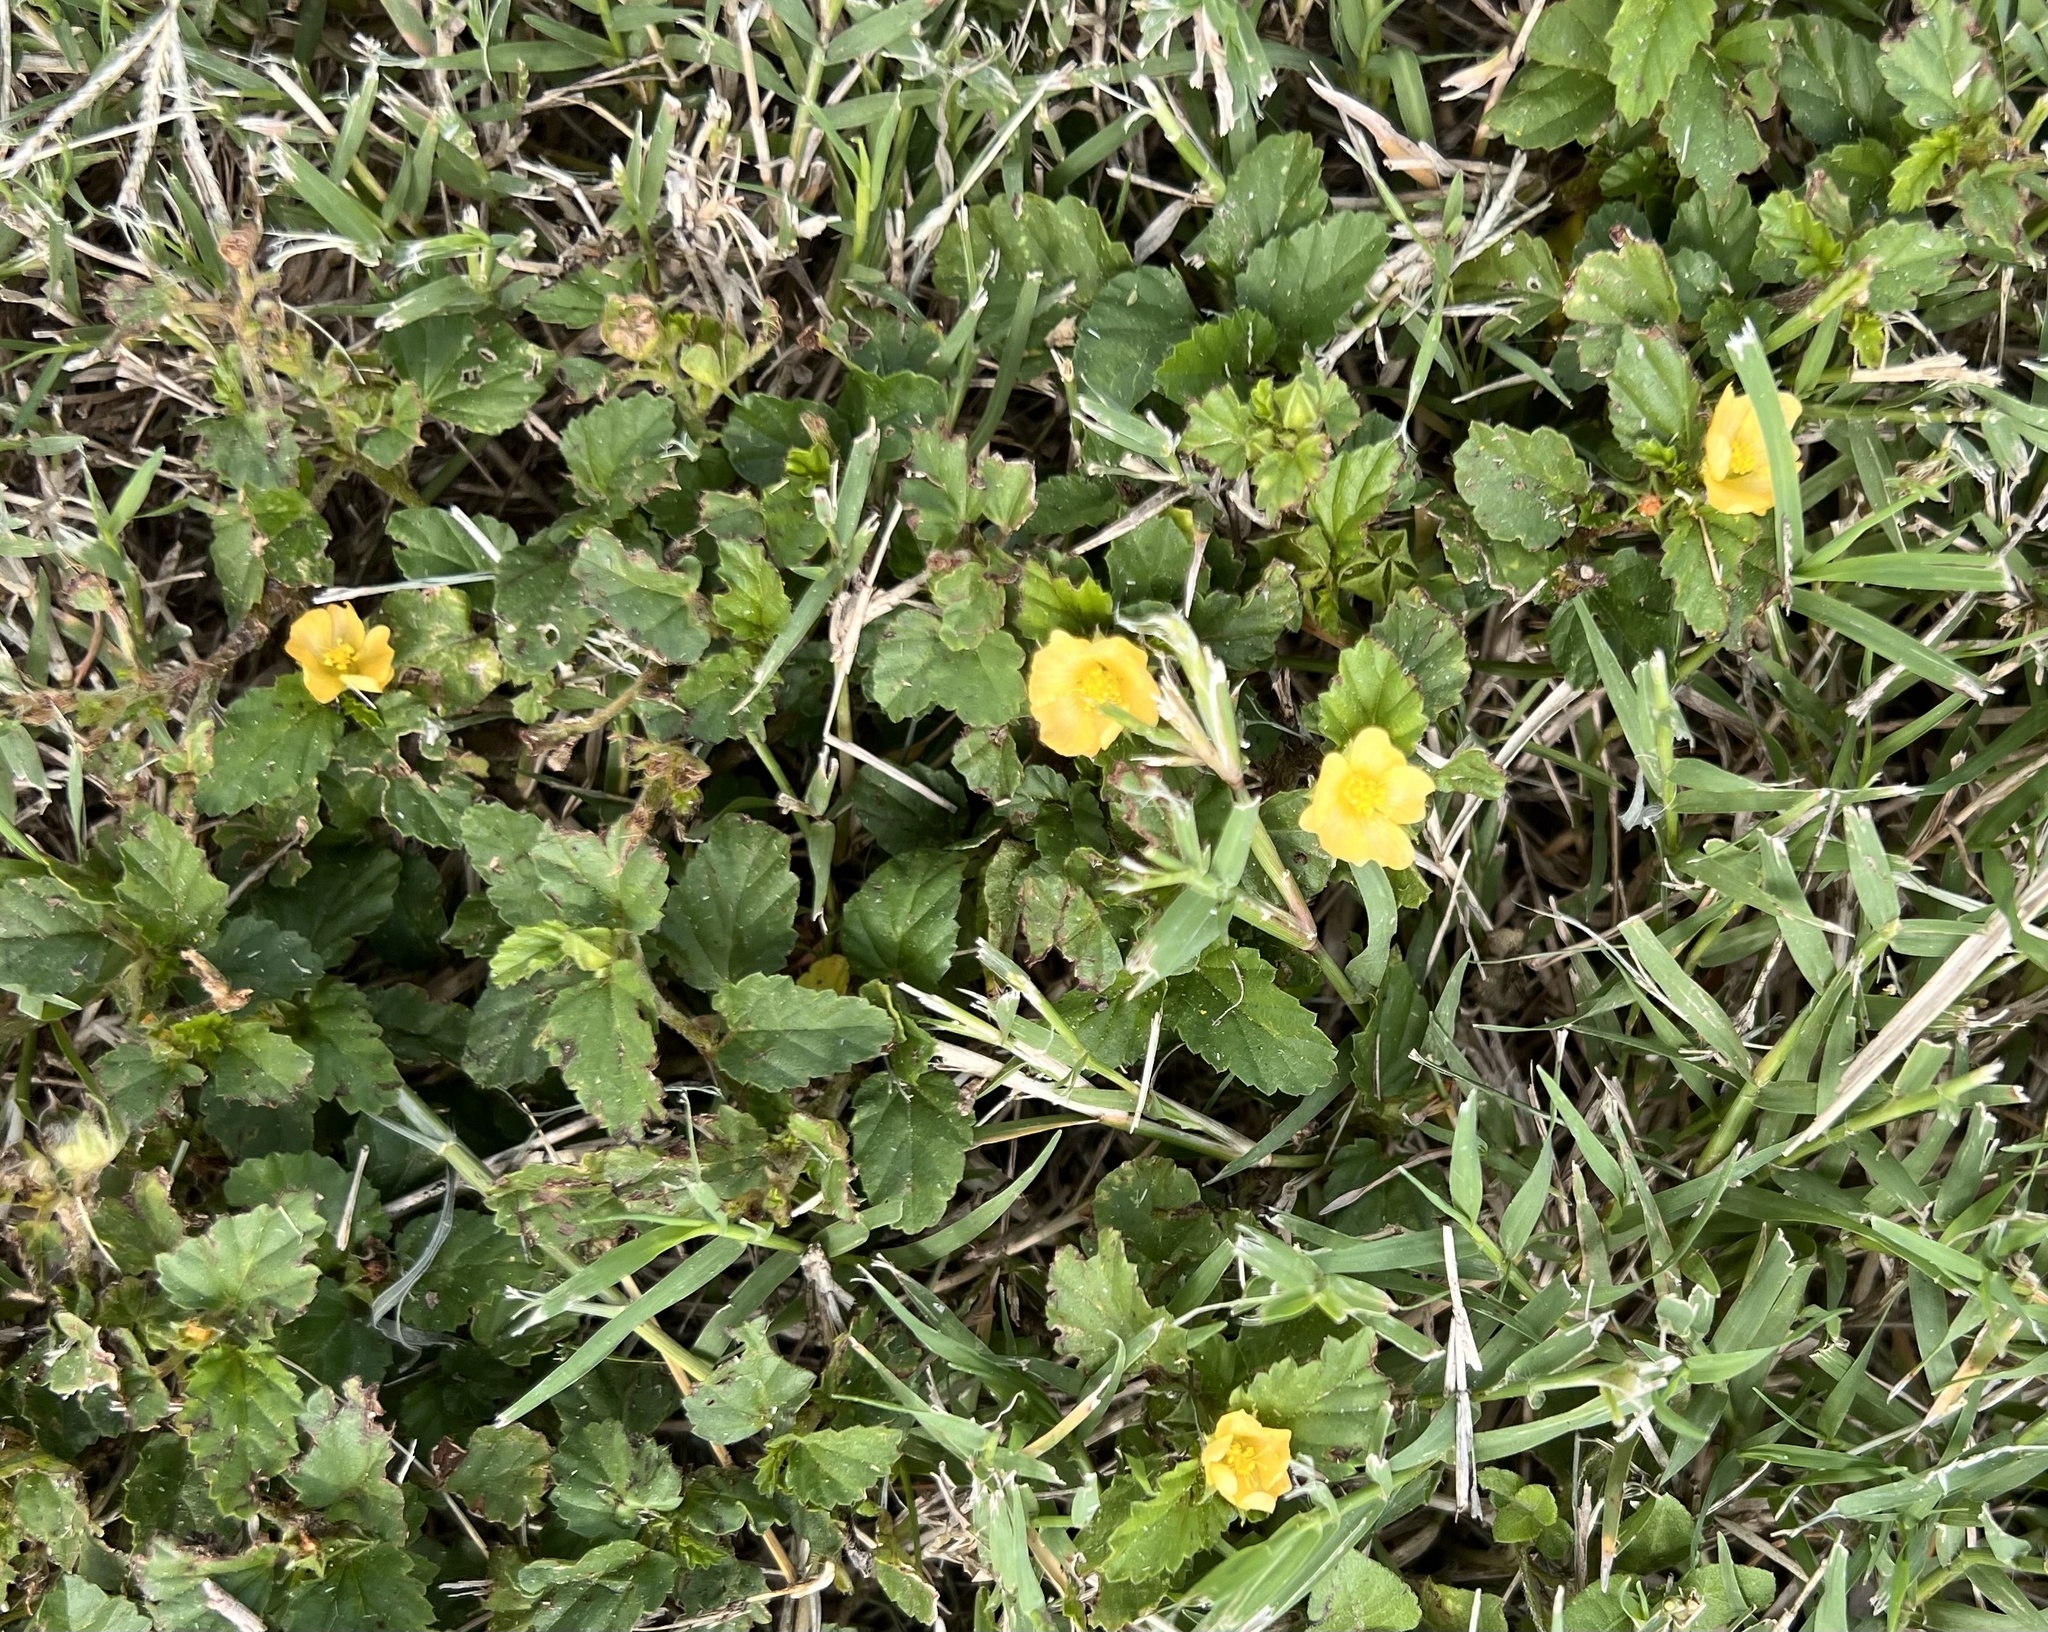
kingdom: Plantae
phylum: Tracheophyta
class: Magnoliopsida
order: Malvales
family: Malvaceae
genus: Malvastrum
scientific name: Malvastrum coromandelianum
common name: Threelobe false mallow
